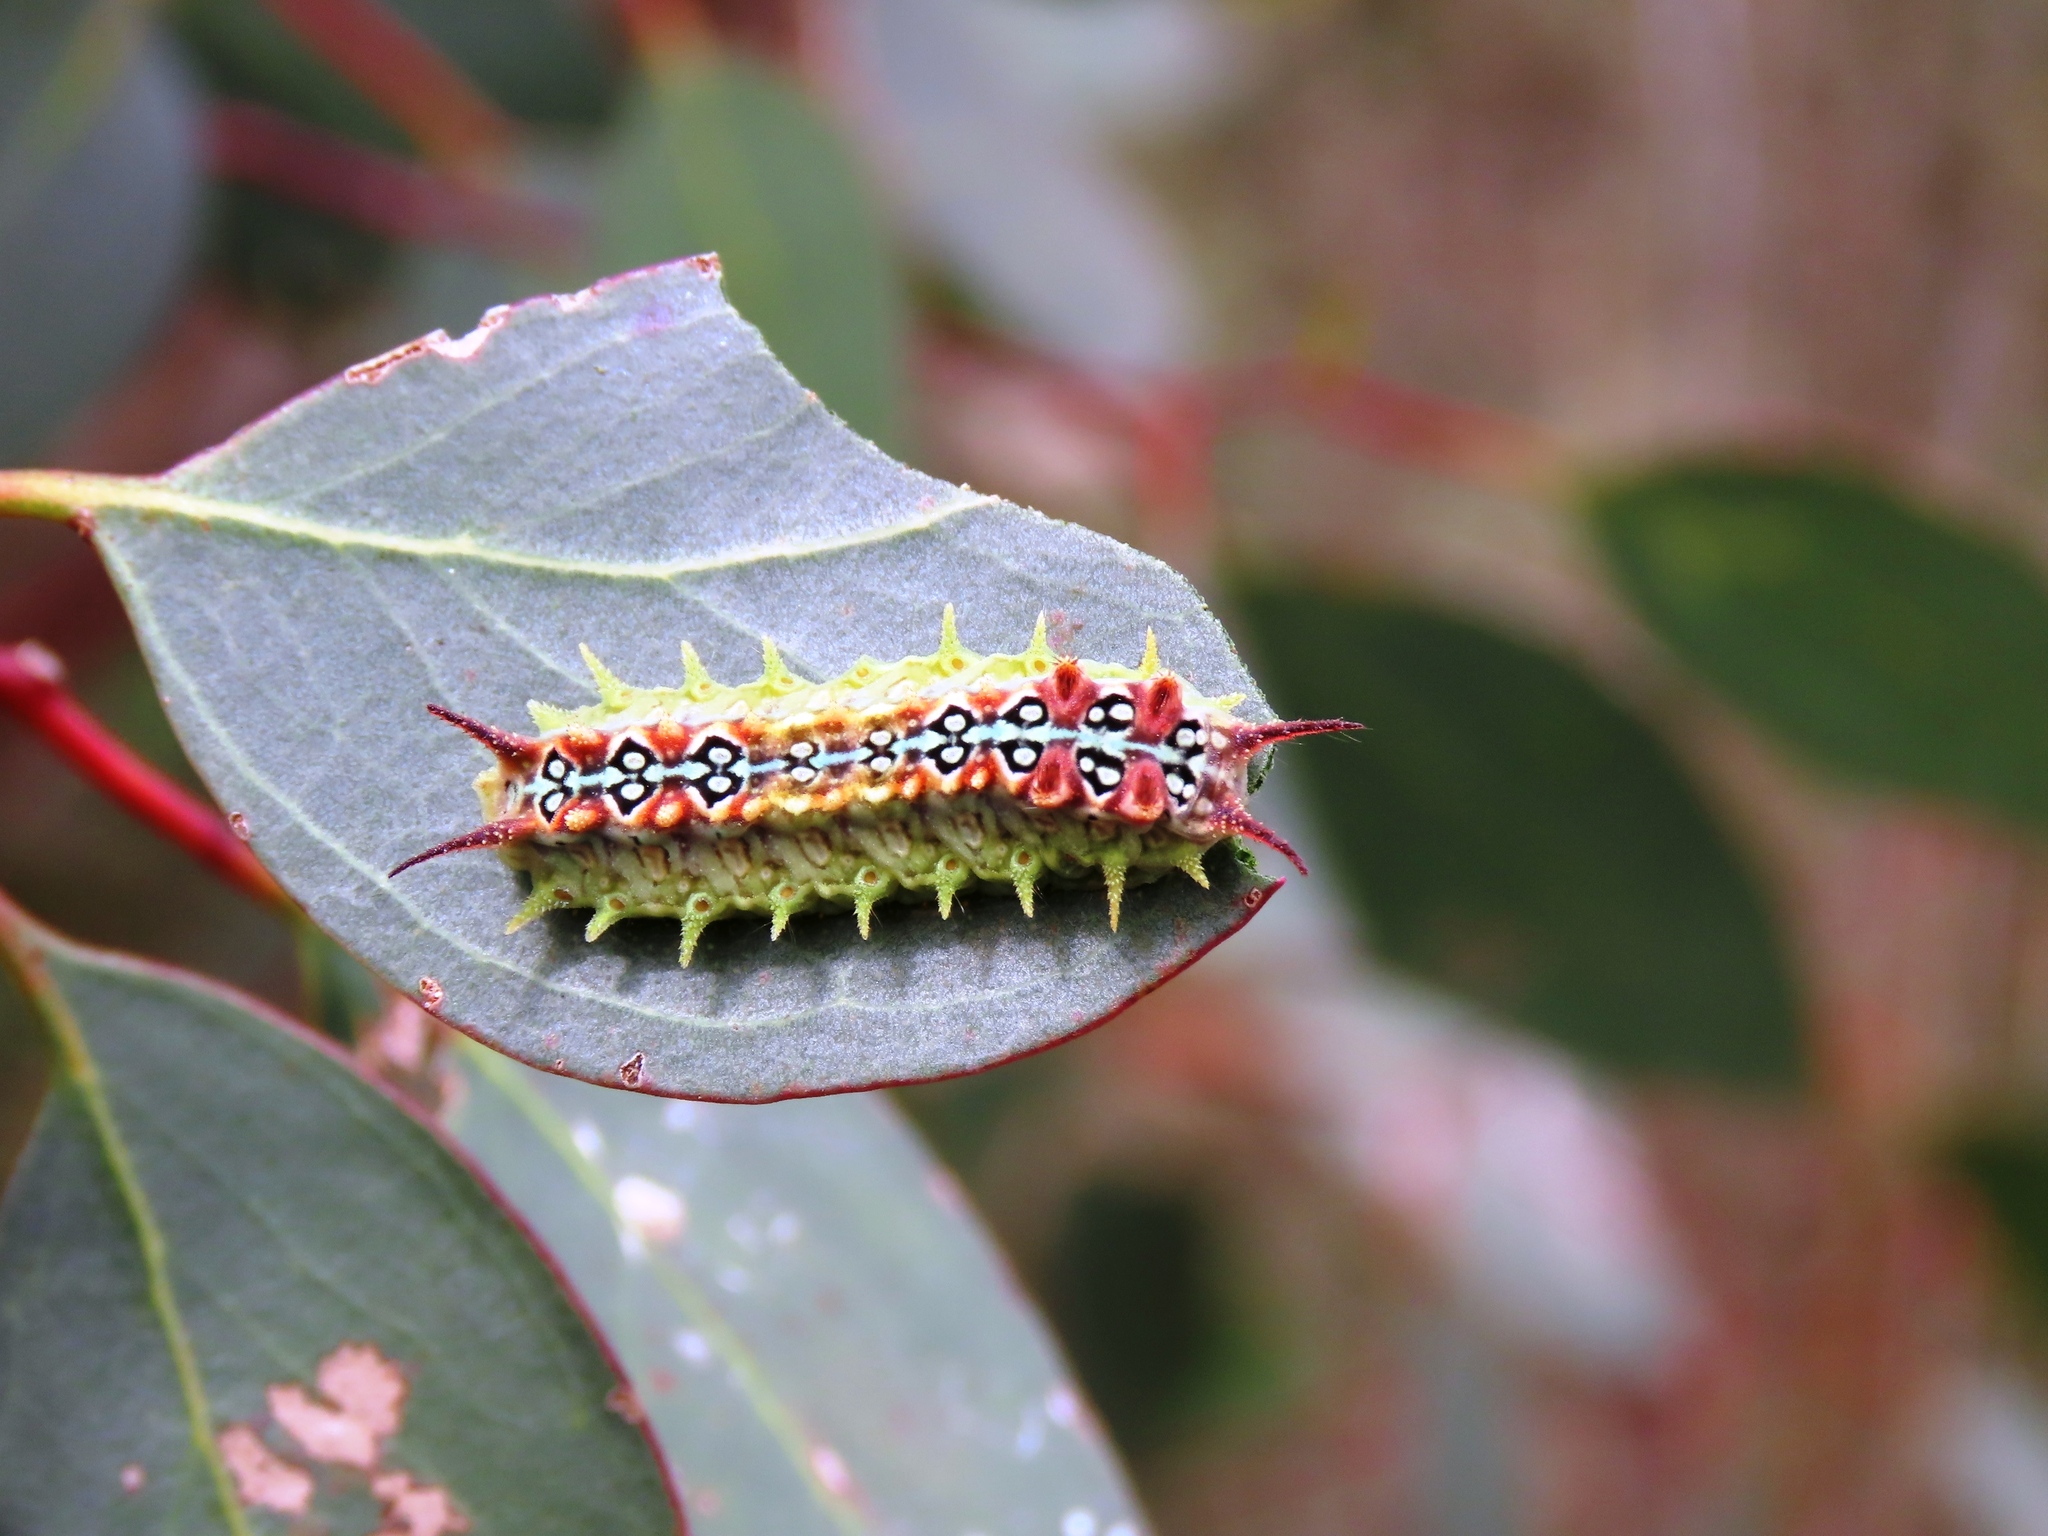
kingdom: Animalia
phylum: Arthropoda
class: Insecta
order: Lepidoptera
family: Limacodidae
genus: Doratifera
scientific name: Doratifera quadriguttata
